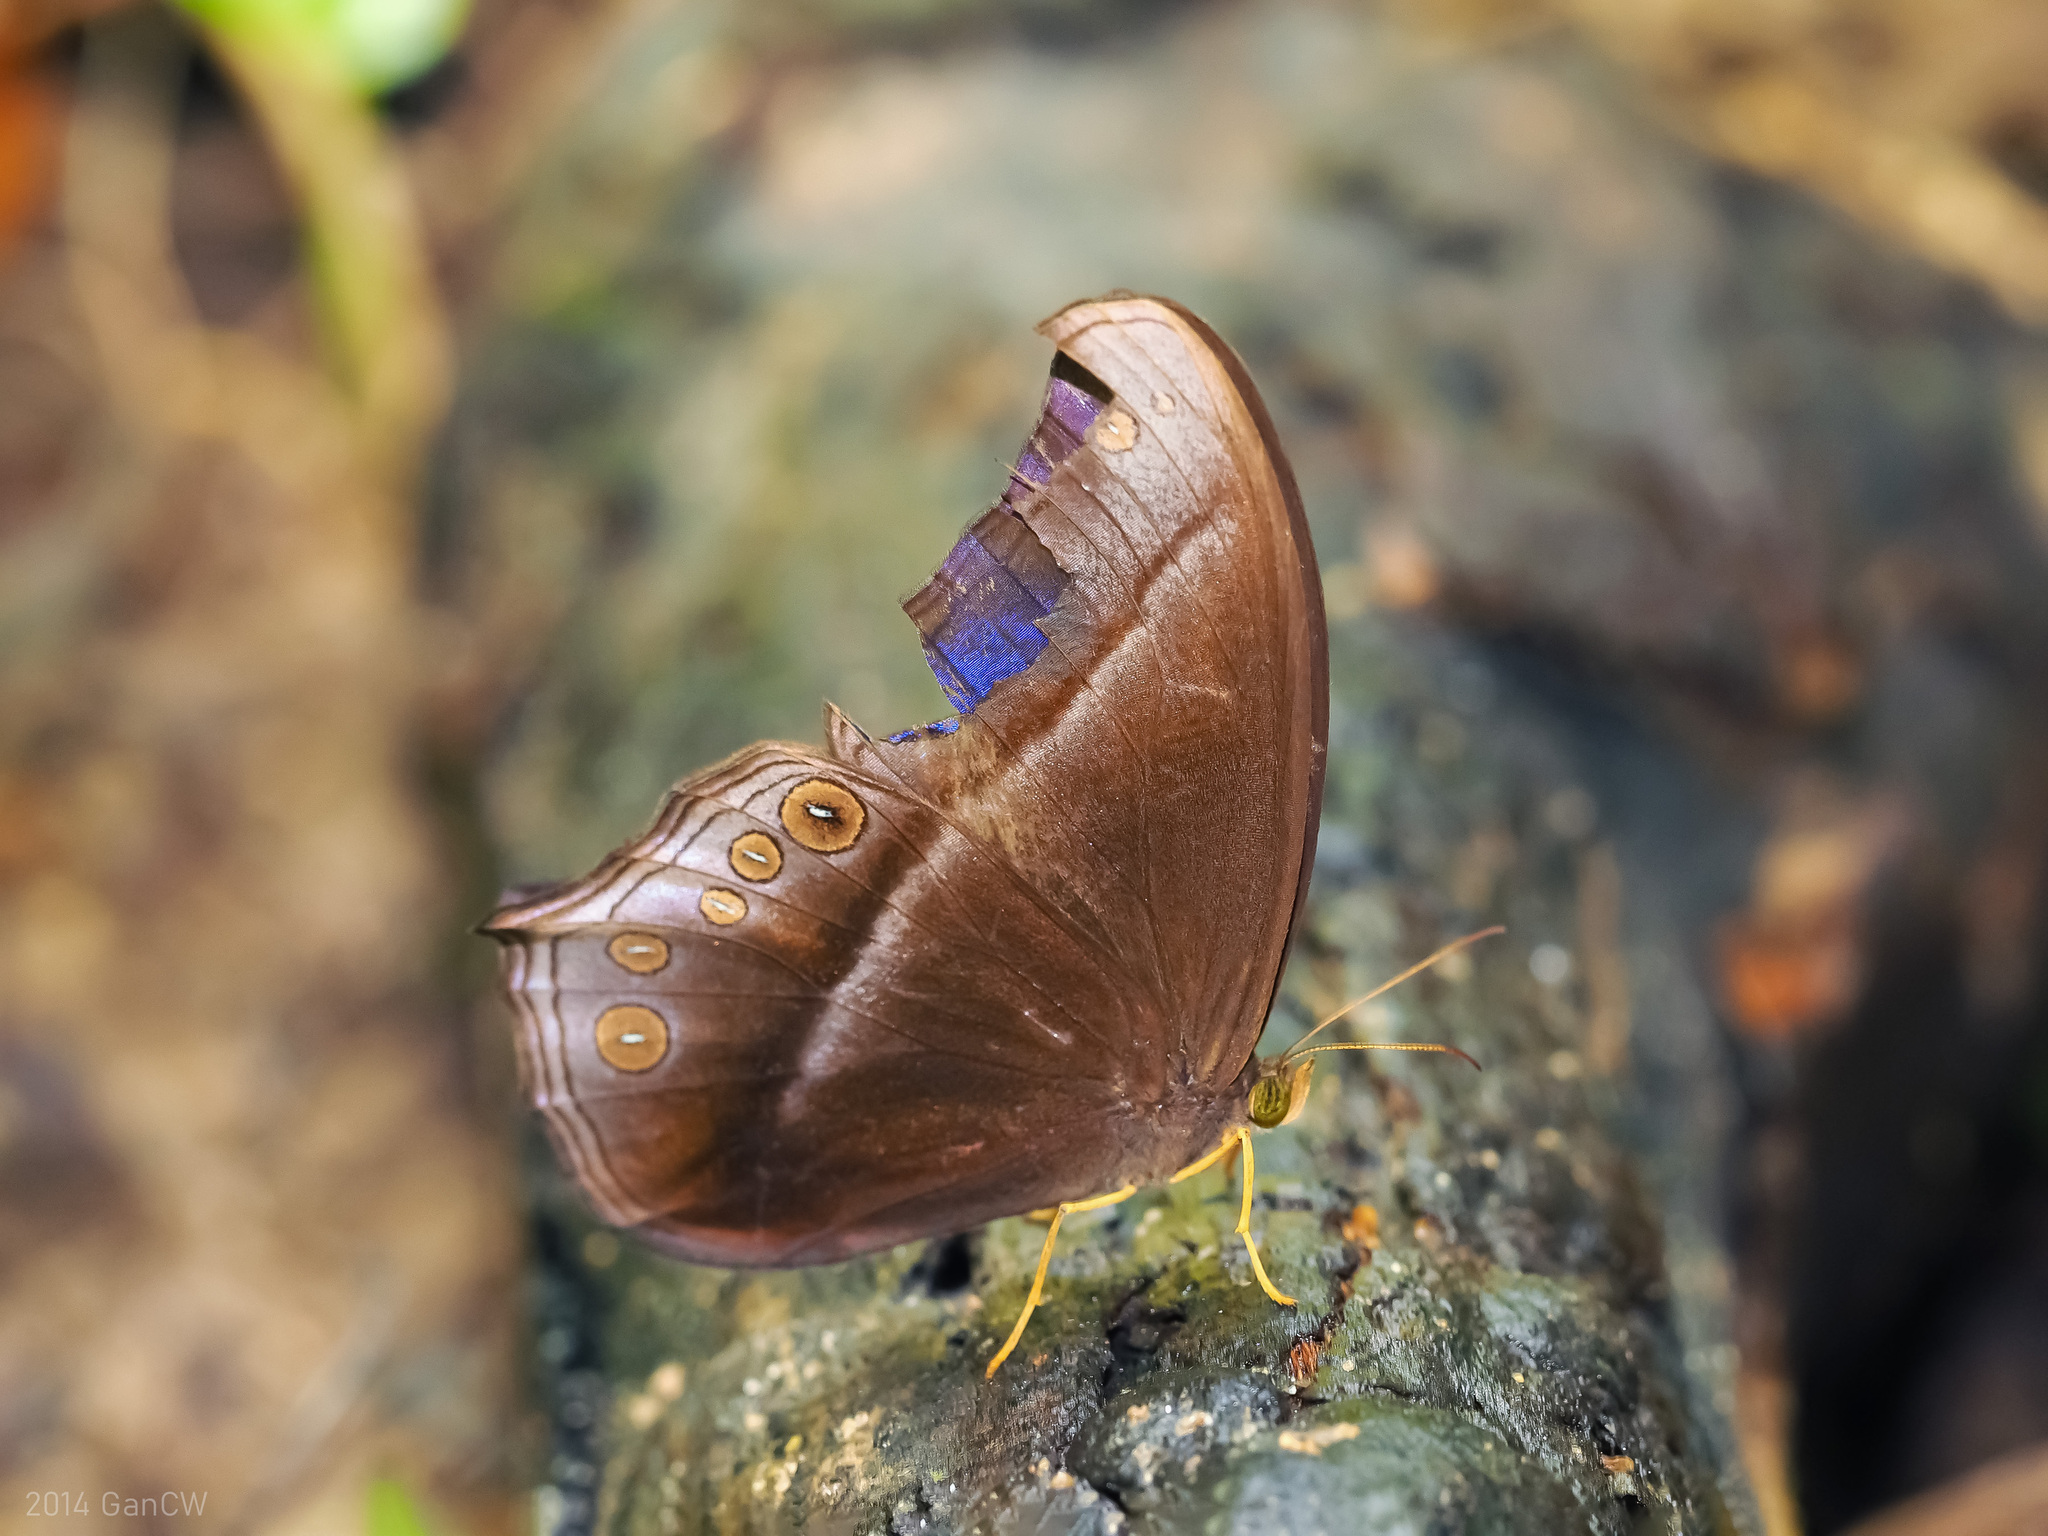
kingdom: Animalia
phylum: Arthropoda
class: Insecta
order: Lepidoptera
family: Nymphalidae
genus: Coelites
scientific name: Coelites epiminthia
